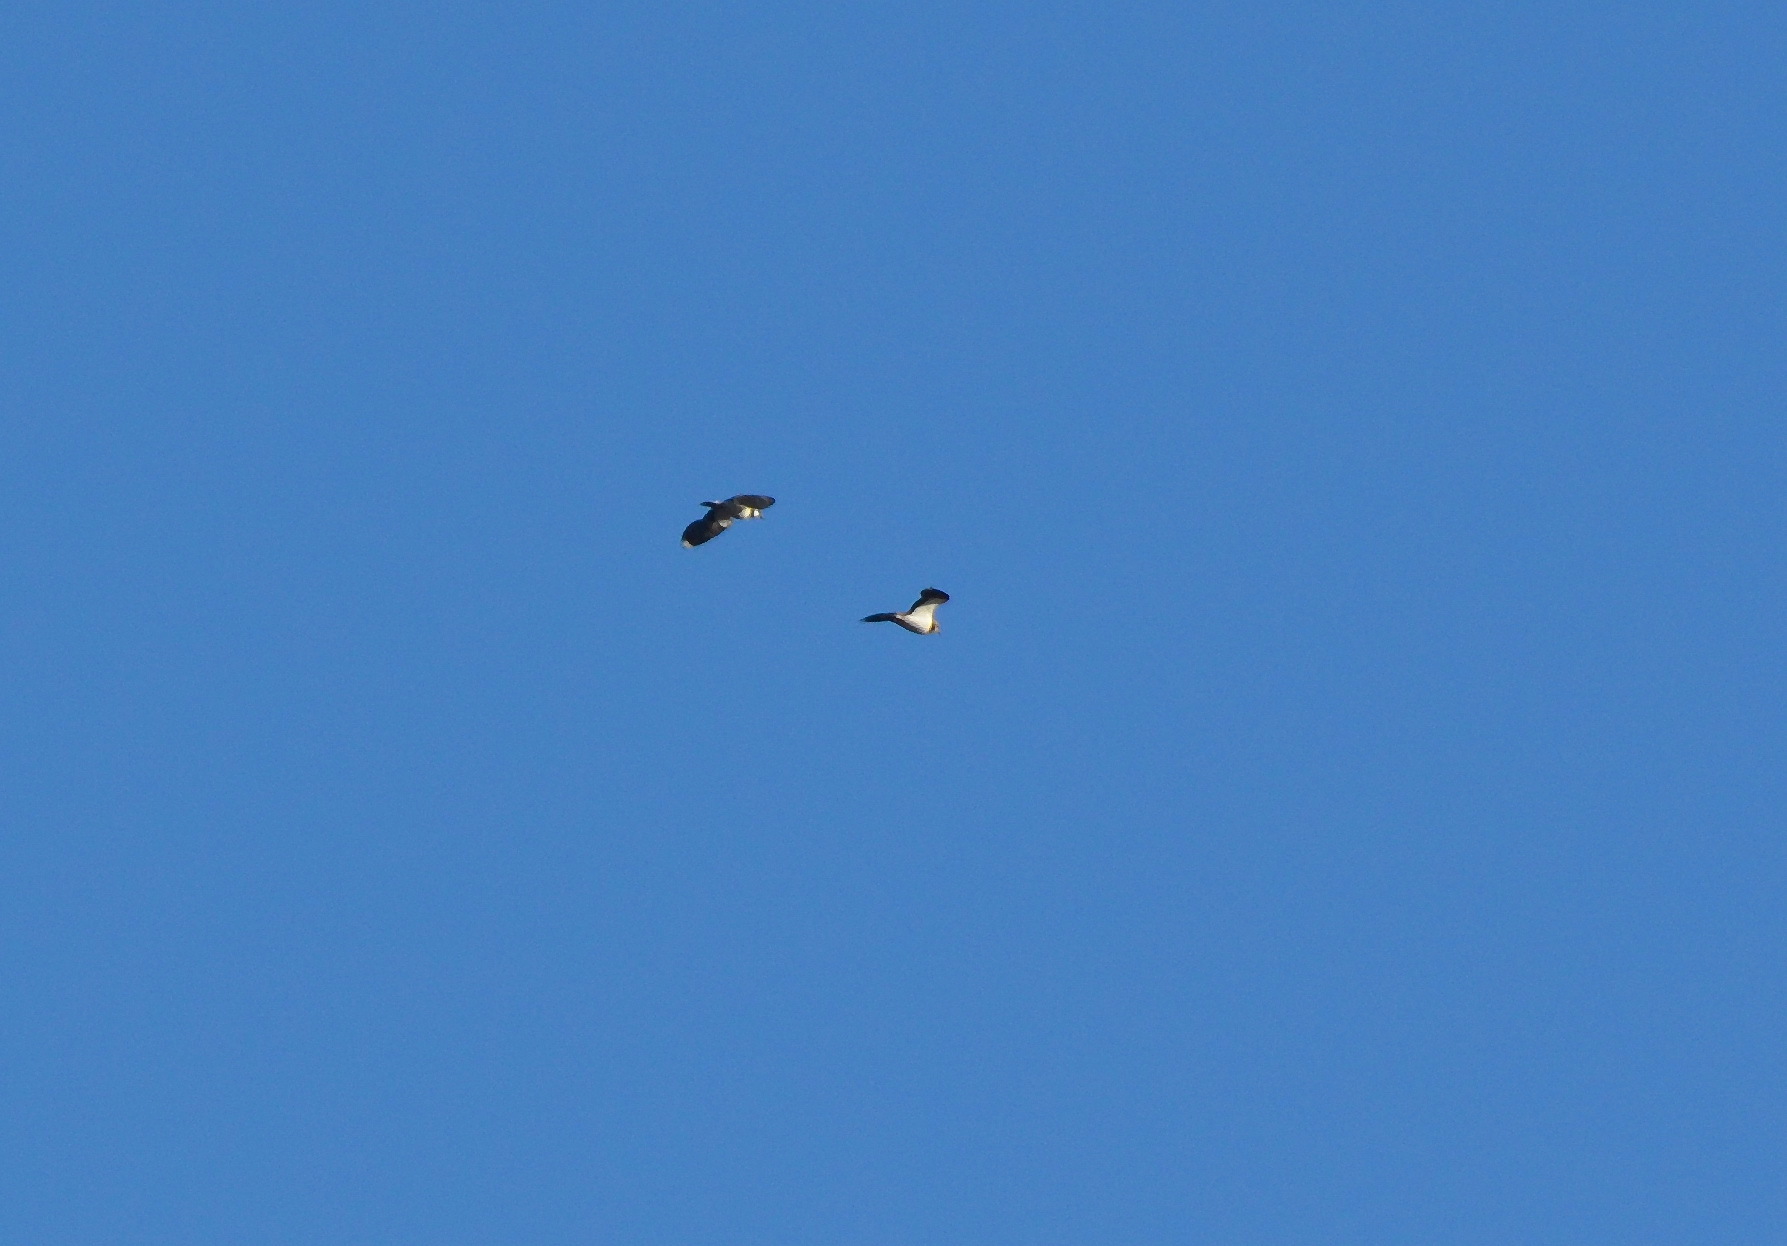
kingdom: Animalia
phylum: Chordata
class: Aves
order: Charadriiformes
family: Charadriidae
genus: Vanellus
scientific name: Vanellus vanellus
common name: Northern lapwing
